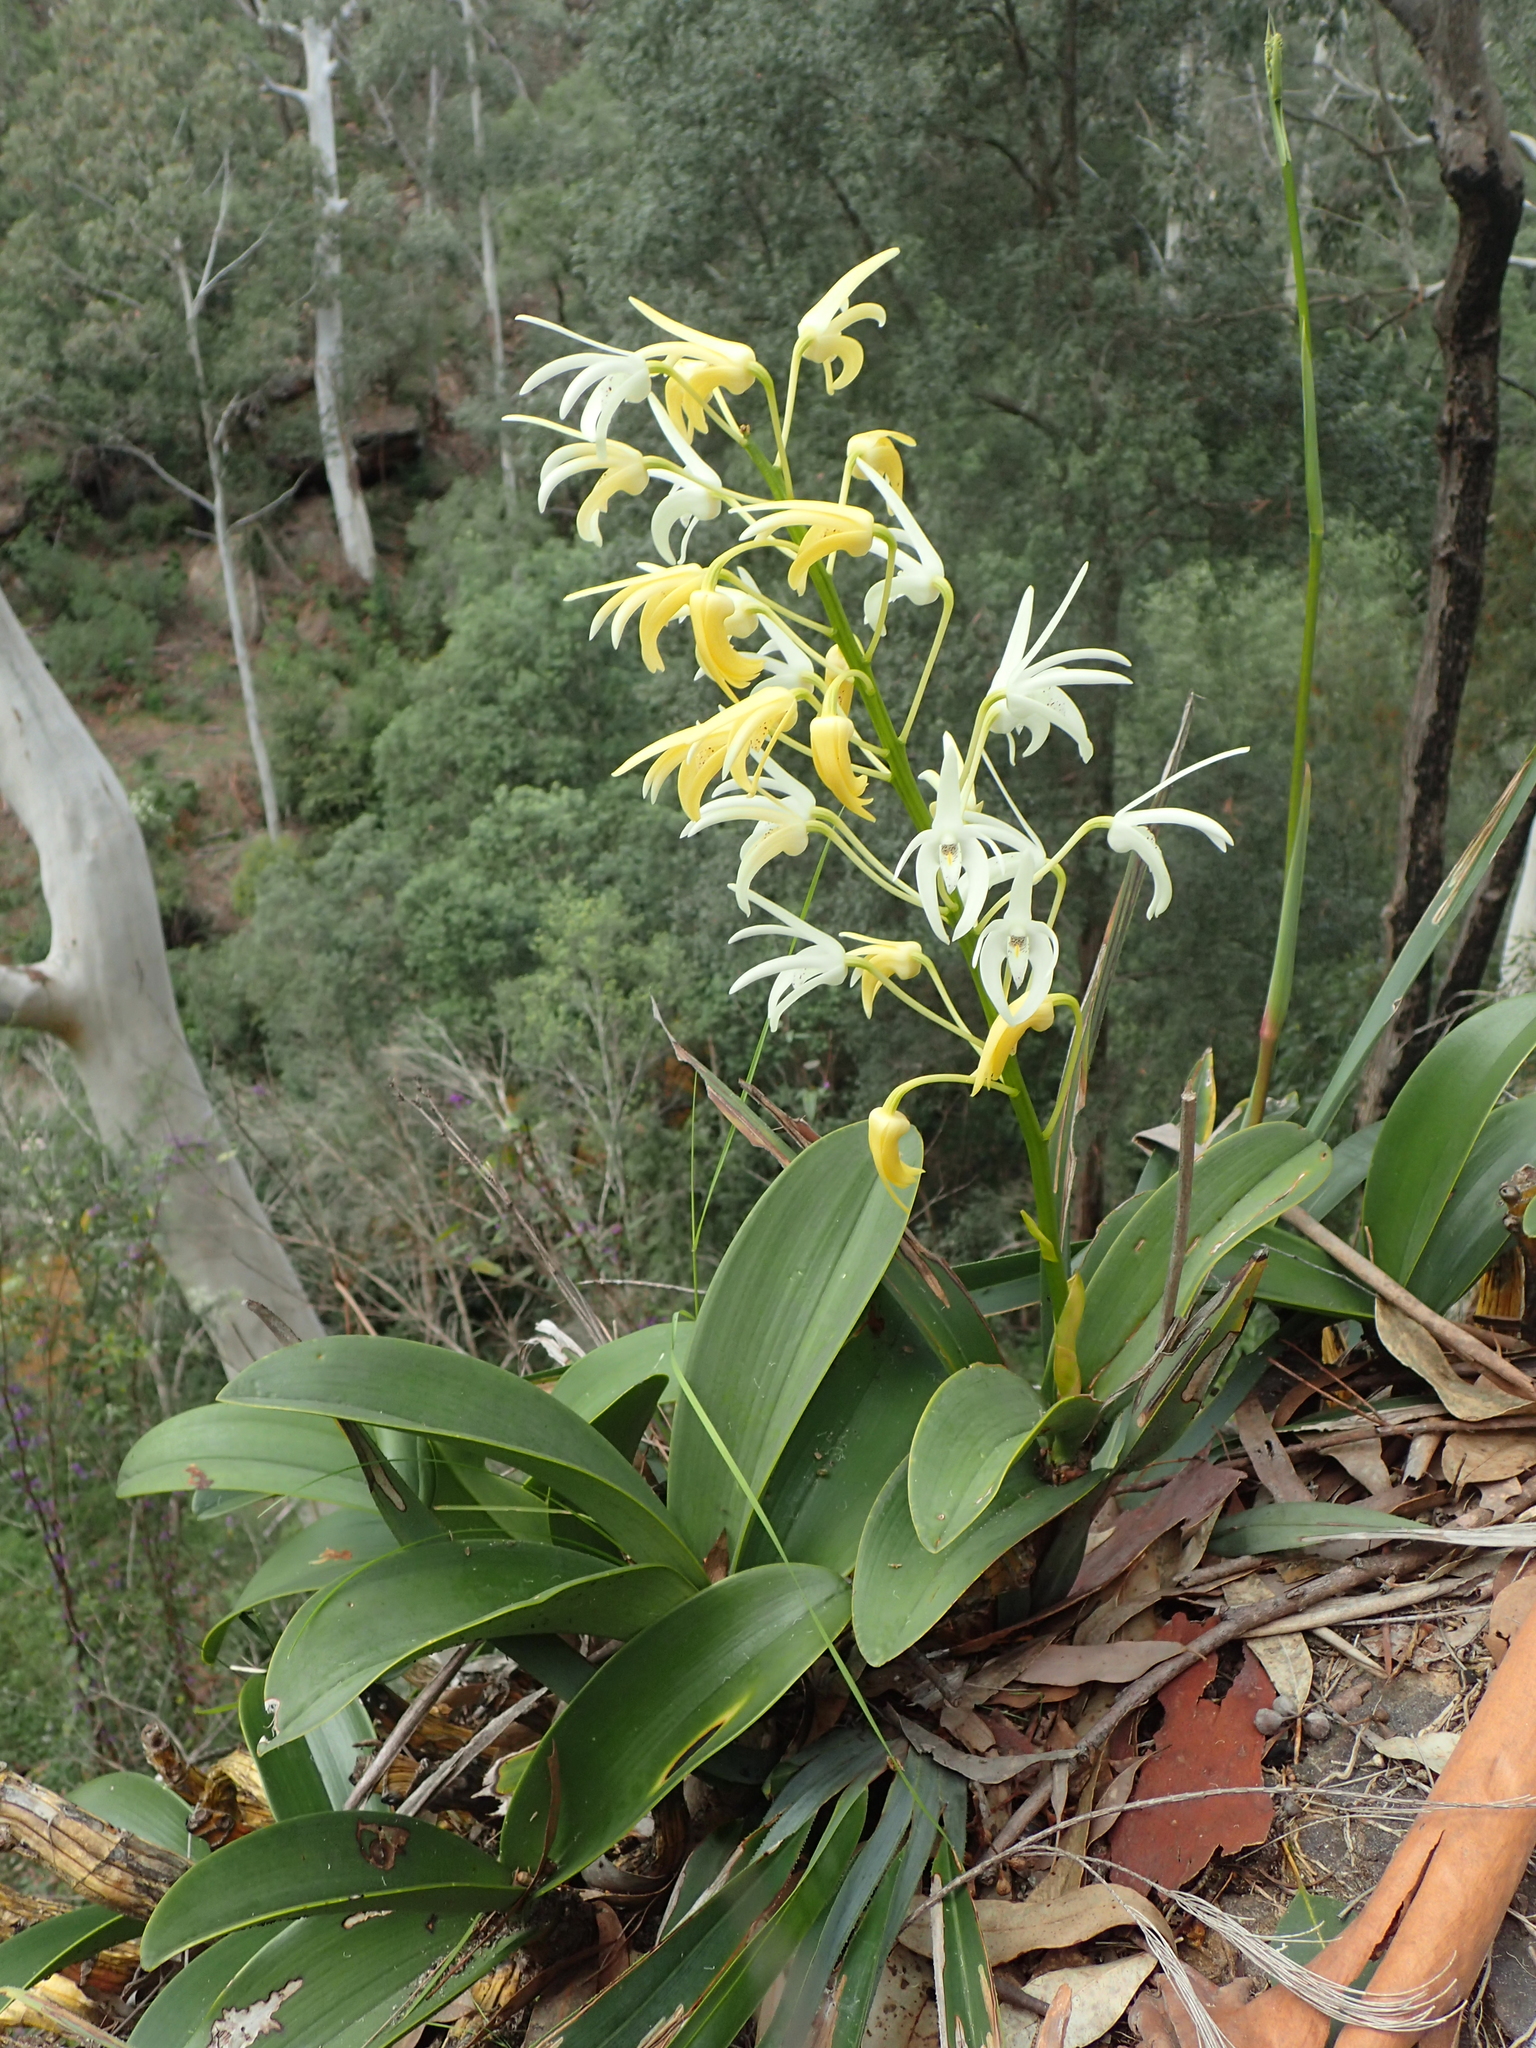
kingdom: Plantae
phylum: Tracheophyta
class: Liliopsida
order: Asparagales
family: Orchidaceae
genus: Dendrobium
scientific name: Dendrobium speciosum
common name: Rock-lily
